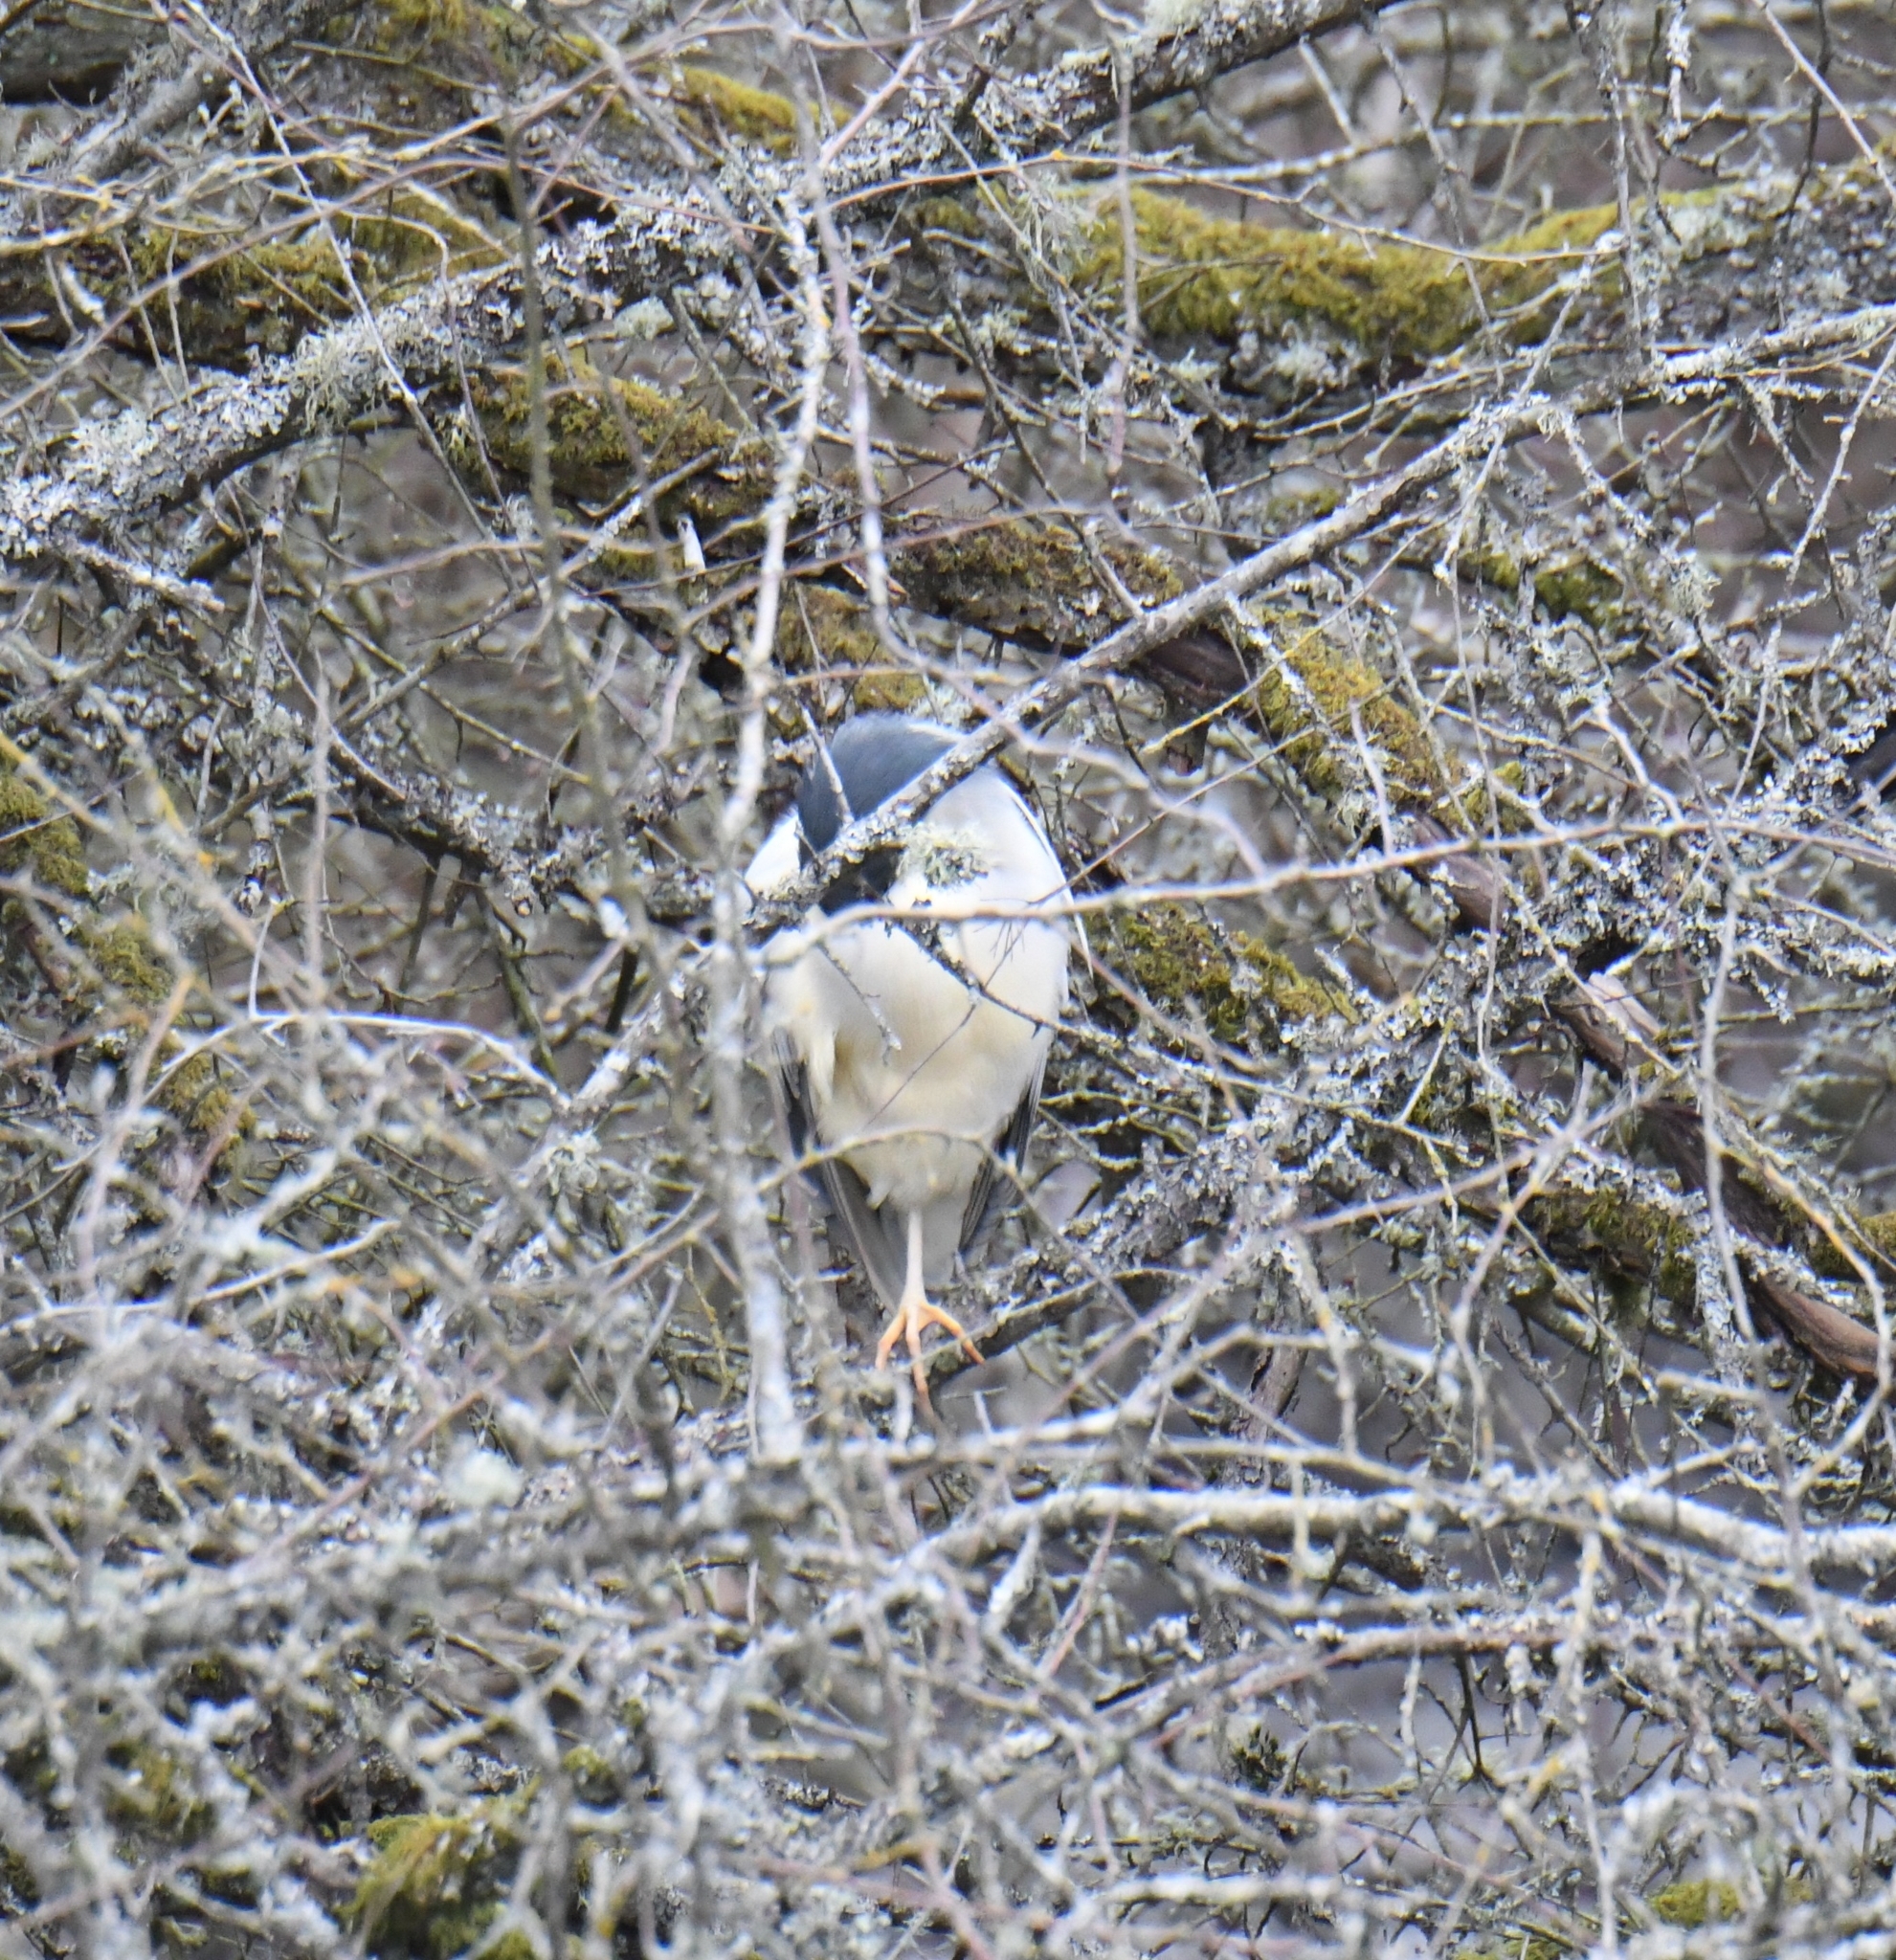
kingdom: Animalia
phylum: Chordata
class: Aves
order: Pelecaniformes
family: Ardeidae
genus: Nycticorax
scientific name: Nycticorax nycticorax
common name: Black-crowned night heron
